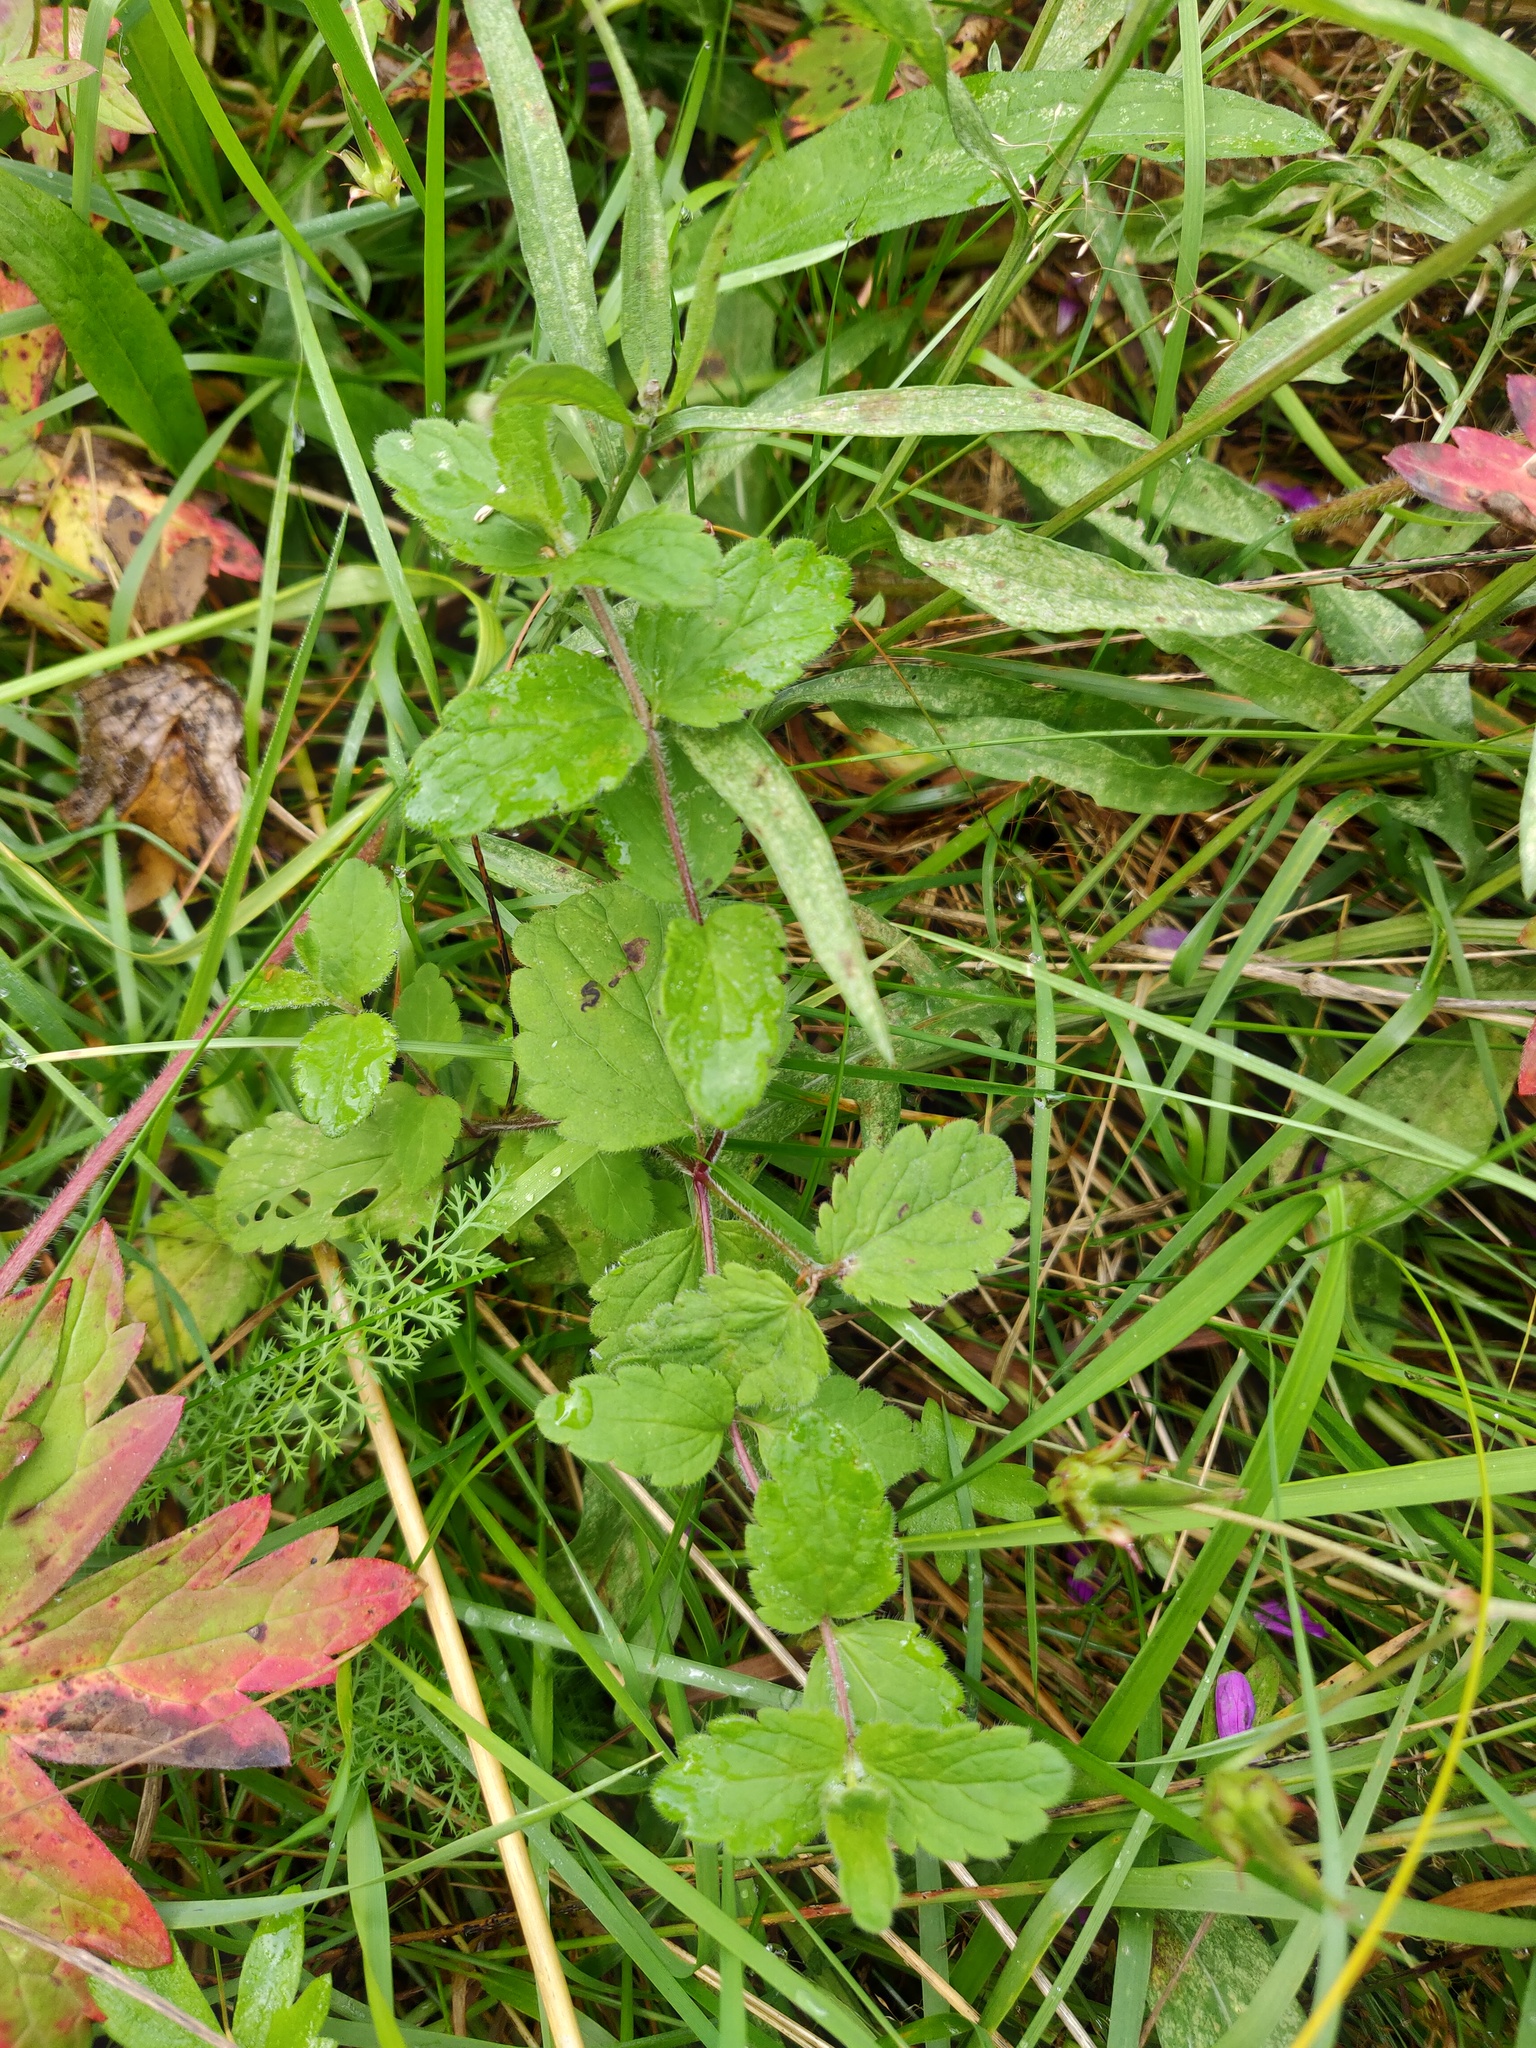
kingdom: Plantae
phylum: Tracheophyta
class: Magnoliopsida
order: Lamiales
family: Plantaginaceae
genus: Veronica
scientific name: Veronica chamaedrys
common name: Germander speedwell
